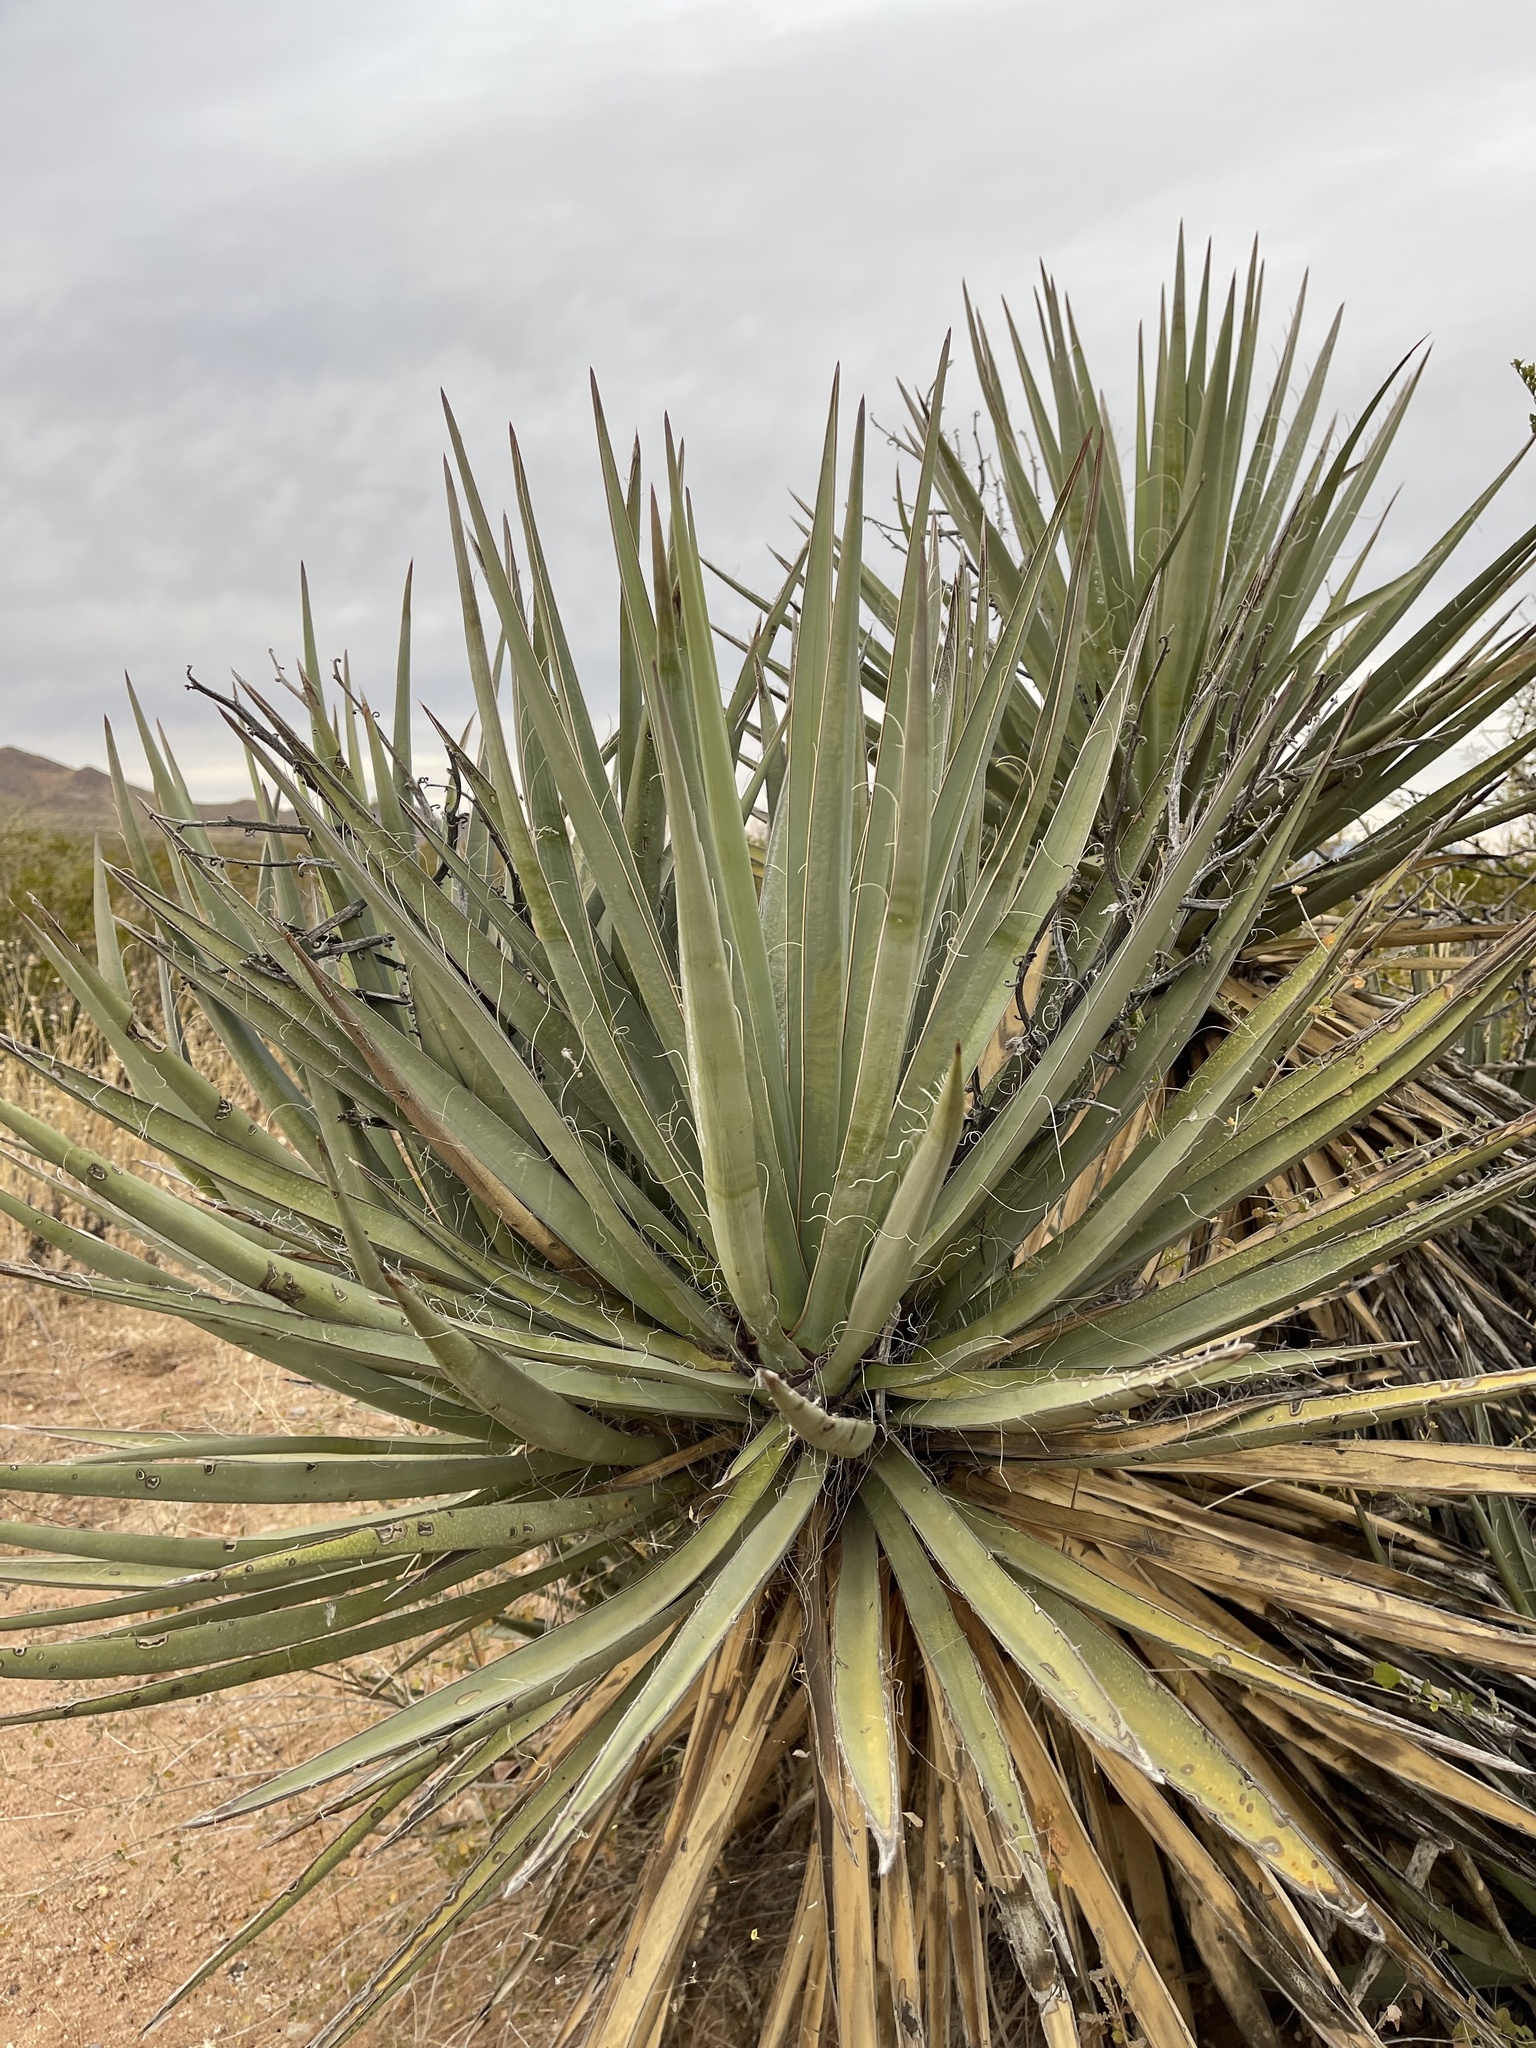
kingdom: Plantae
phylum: Tracheophyta
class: Liliopsida
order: Asparagales
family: Asparagaceae
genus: Yucca
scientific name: Yucca baccata
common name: Banana yucca
